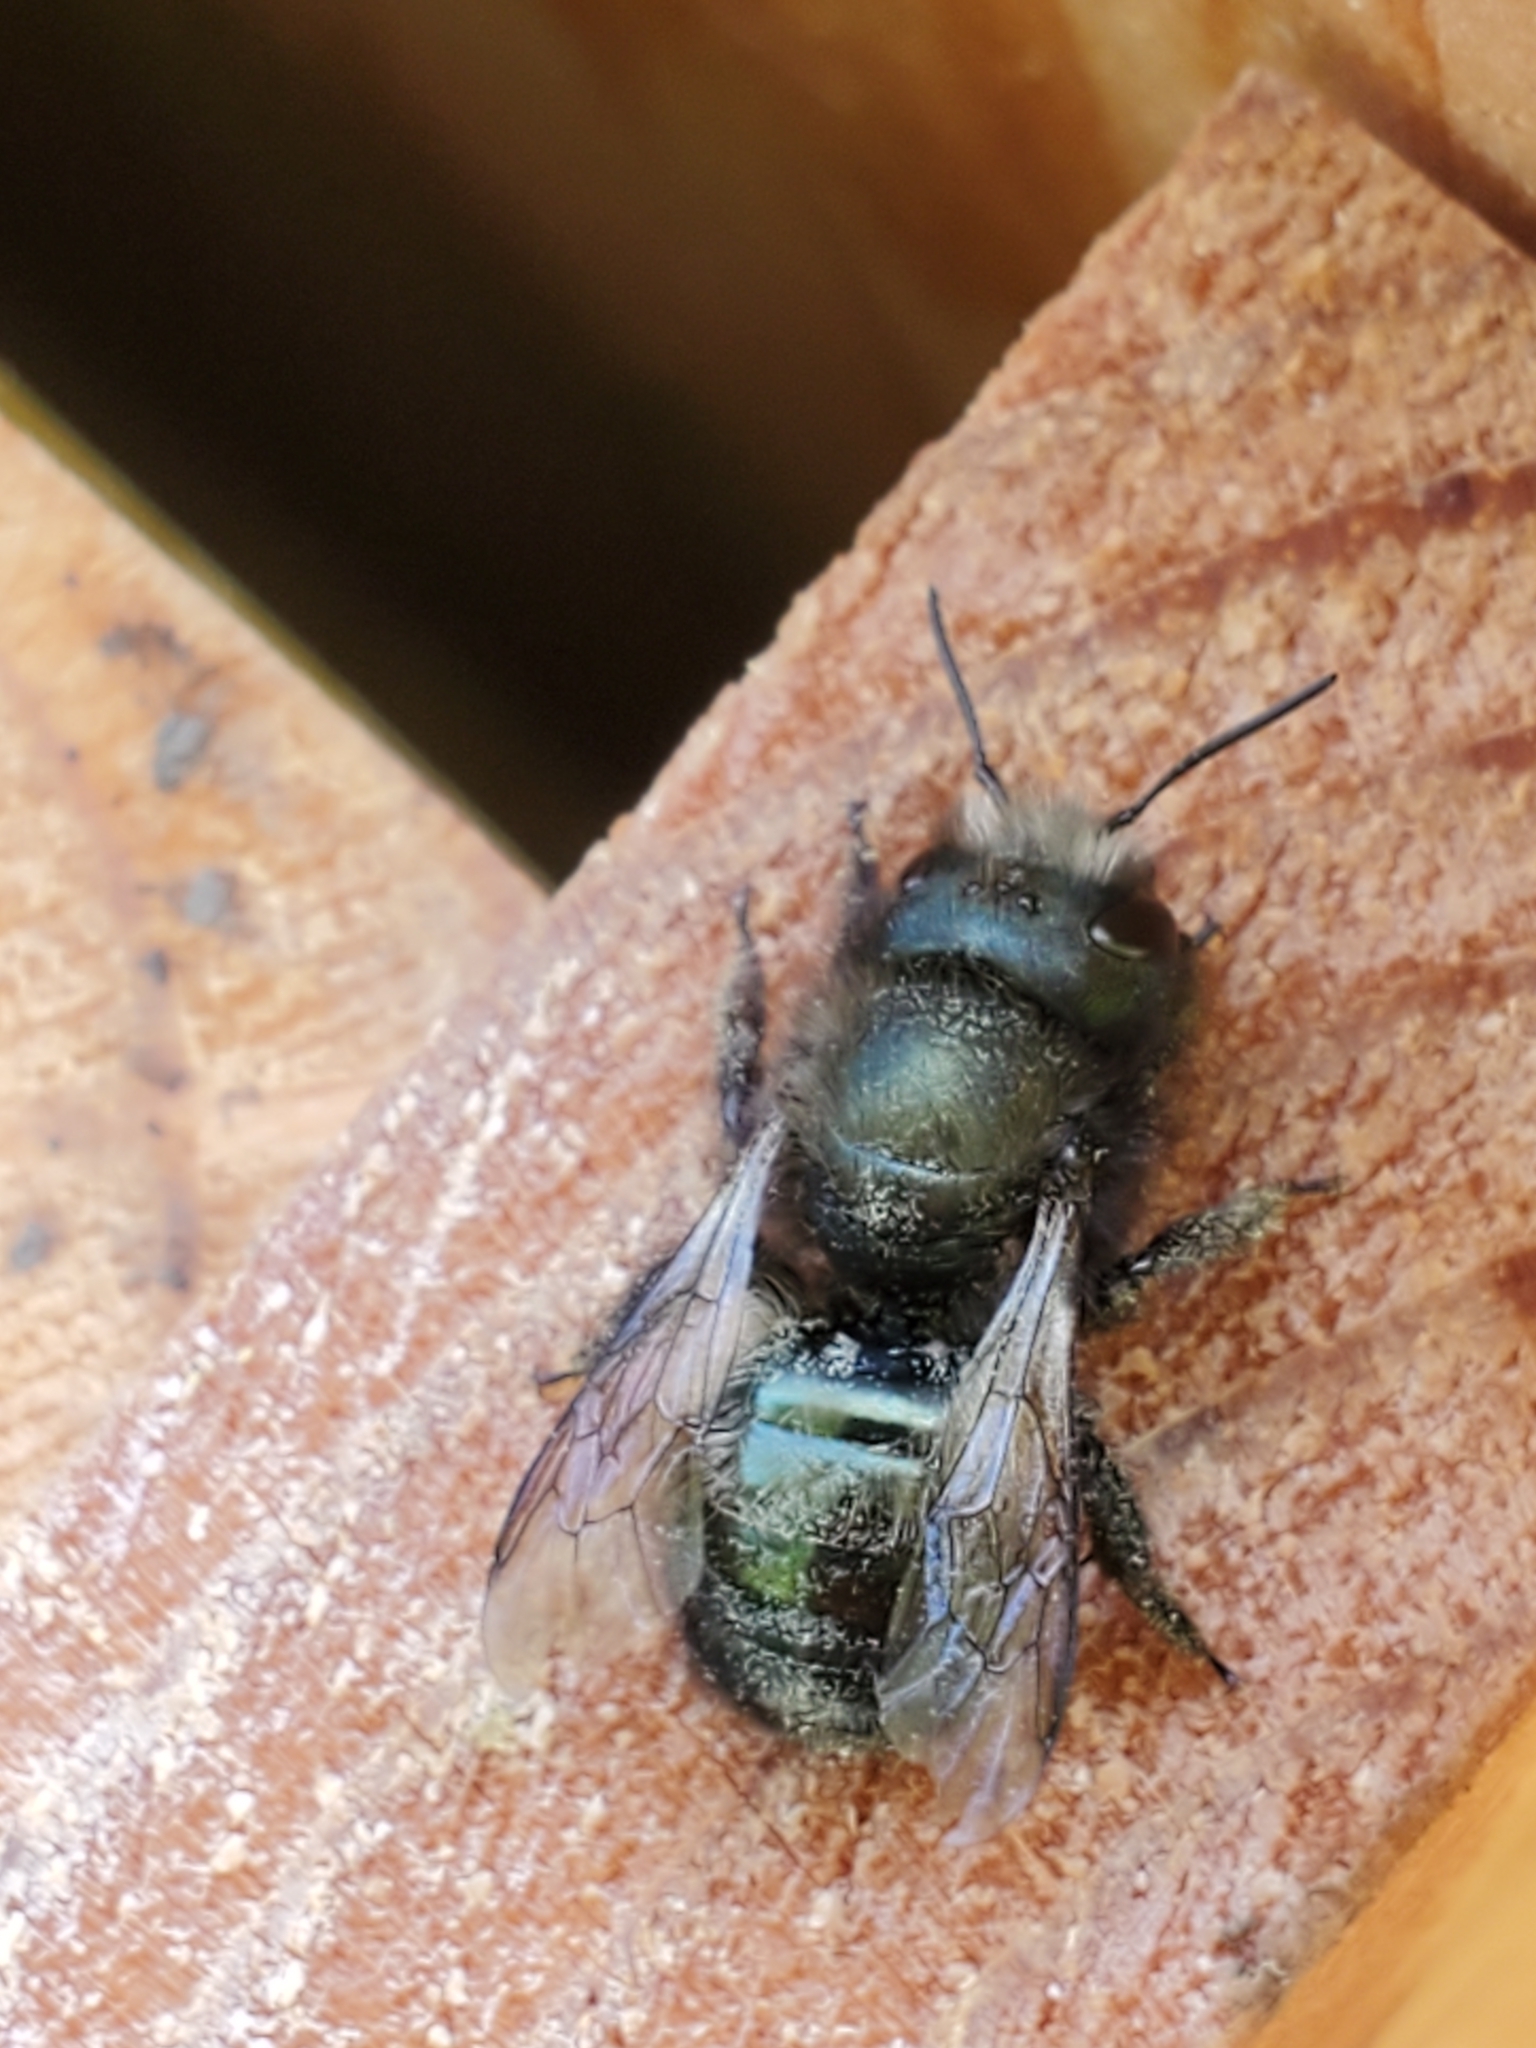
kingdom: Animalia
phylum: Arthropoda
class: Insecta
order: Hymenoptera
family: Megachilidae
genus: Osmia
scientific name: Osmia lignaria
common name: Blue orchard bee
